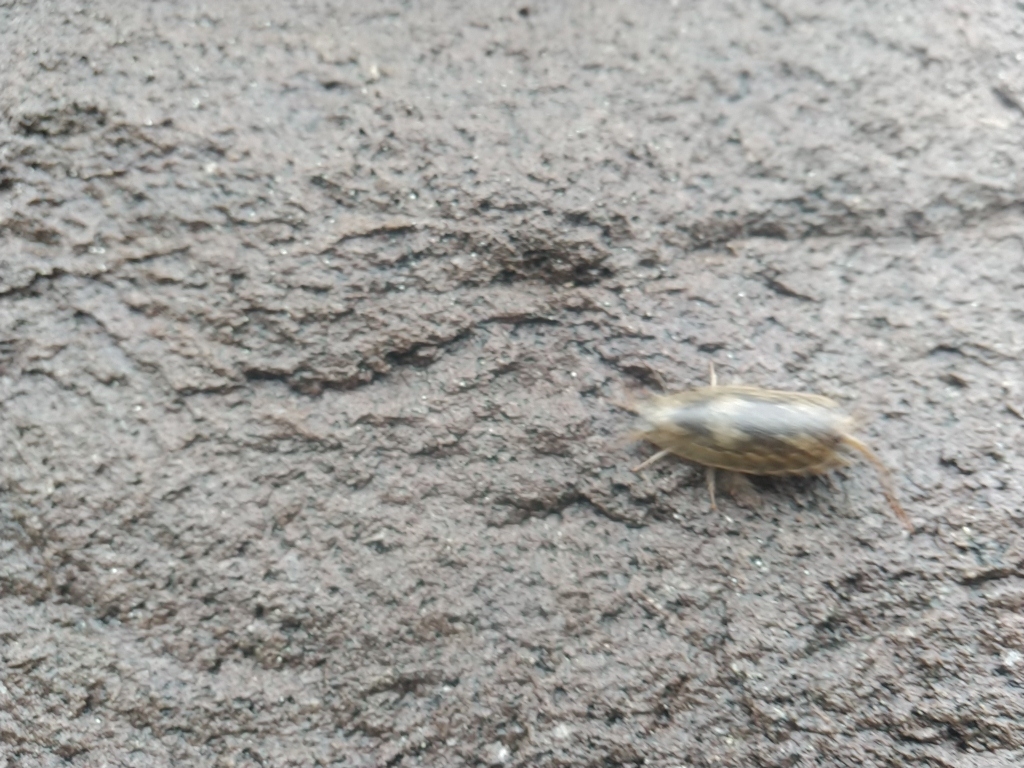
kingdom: Animalia
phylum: Arthropoda
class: Malacostraca
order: Isopoda
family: Ligiidae
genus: Ligia
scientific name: Ligia oceanica
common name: Sea slater
